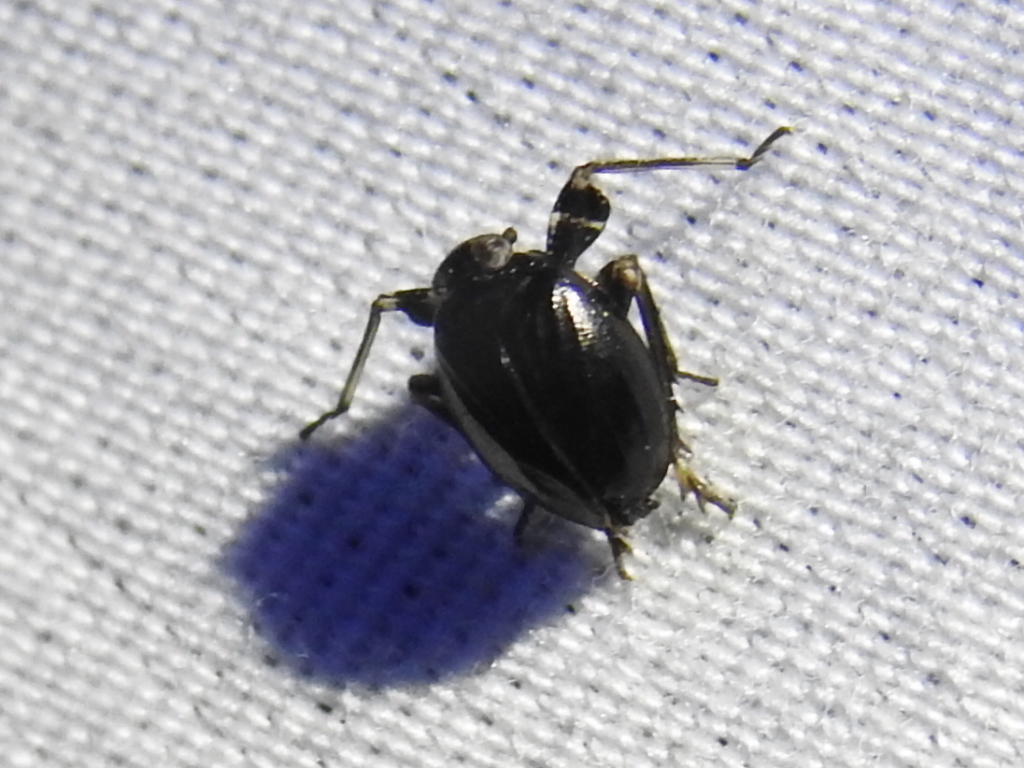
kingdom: Animalia
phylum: Arthropoda
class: Insecta
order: Hemiptera
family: Achilidae
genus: Isodaemon
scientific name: Isodaemon orontes
